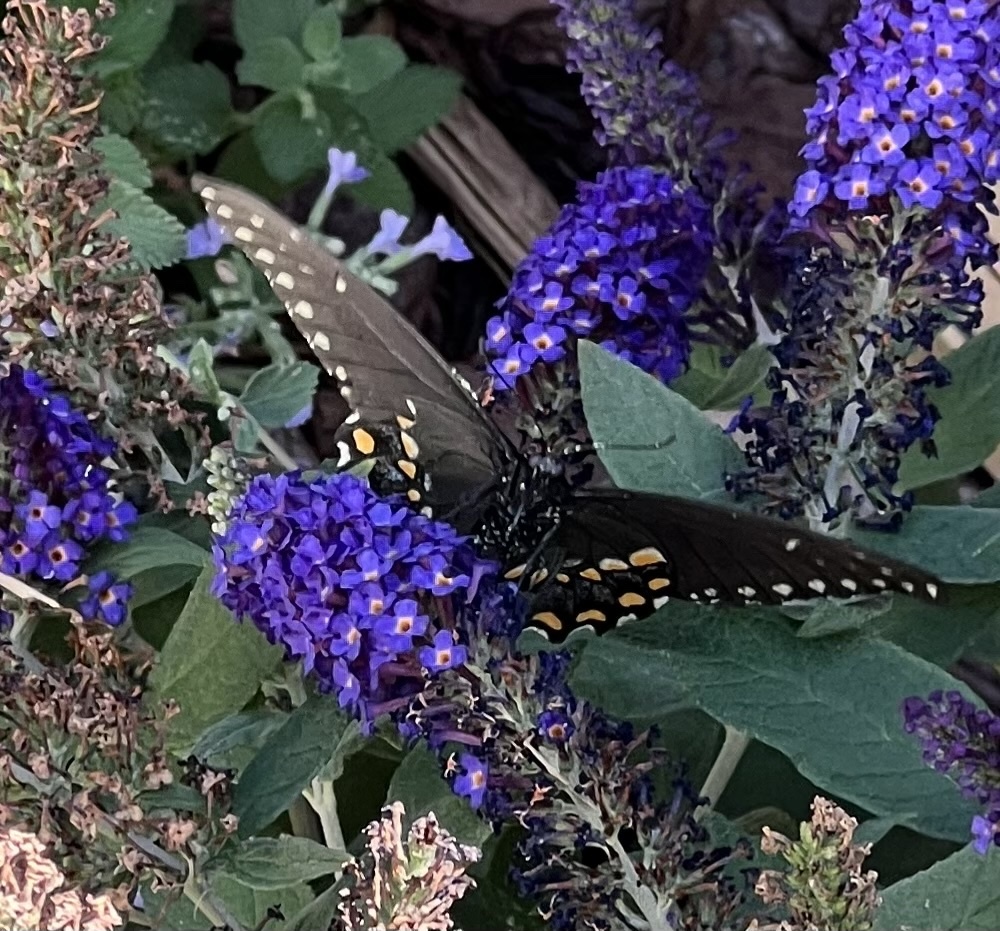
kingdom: Animalia
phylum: Arthropoda
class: Insecta
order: Lepidoptera
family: Papilionidae
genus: Papilio
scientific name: Papilio polyxenes
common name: Black swallowtail
